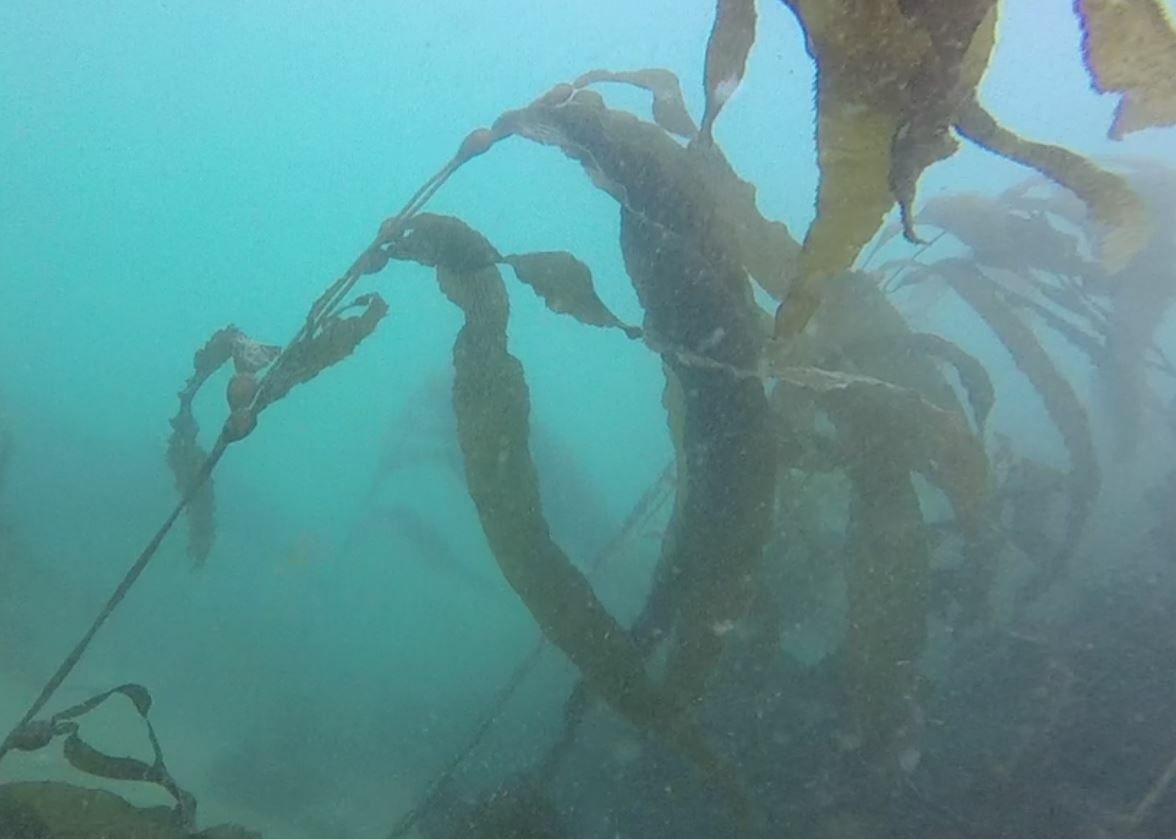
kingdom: Chromista
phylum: Ochrophyta
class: Phaeophyceae
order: Laminariales
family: Laminariaceae
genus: Macrocystis
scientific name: Macrocystis pyrifera
